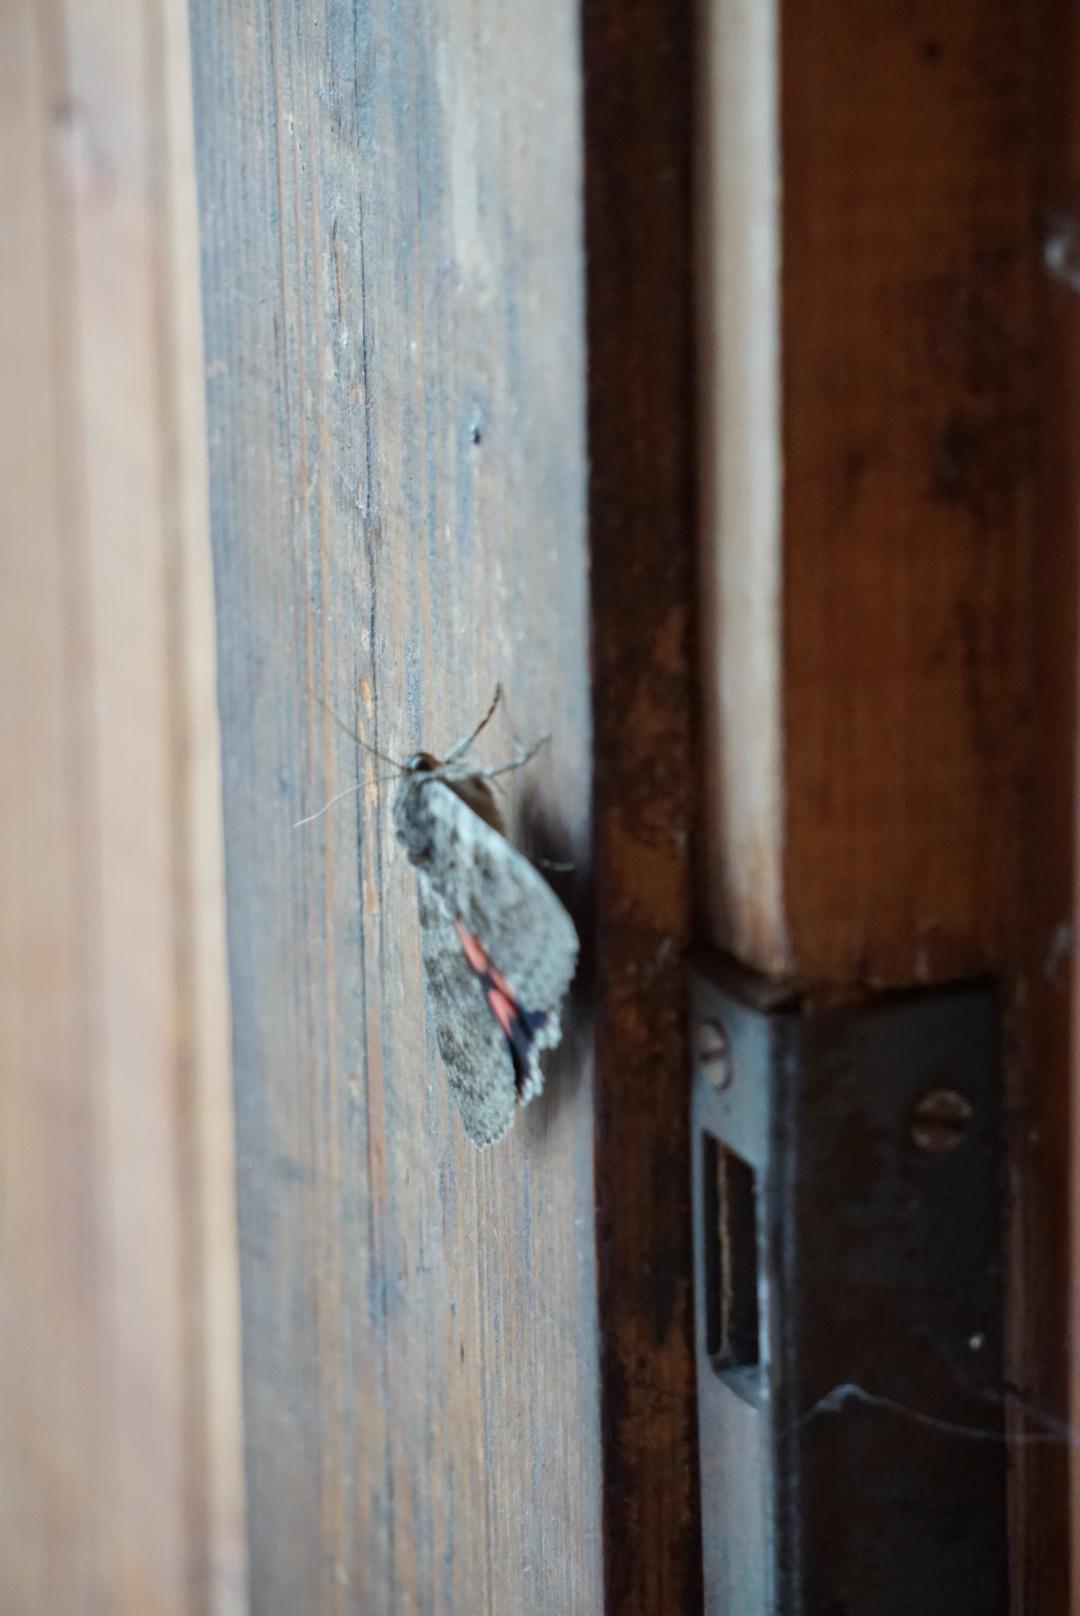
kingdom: Animalia
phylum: Arthropoda
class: Insecta
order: Lepidoptera
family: Erebidae
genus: Catocala
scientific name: Catocala elocata
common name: French red underwing
